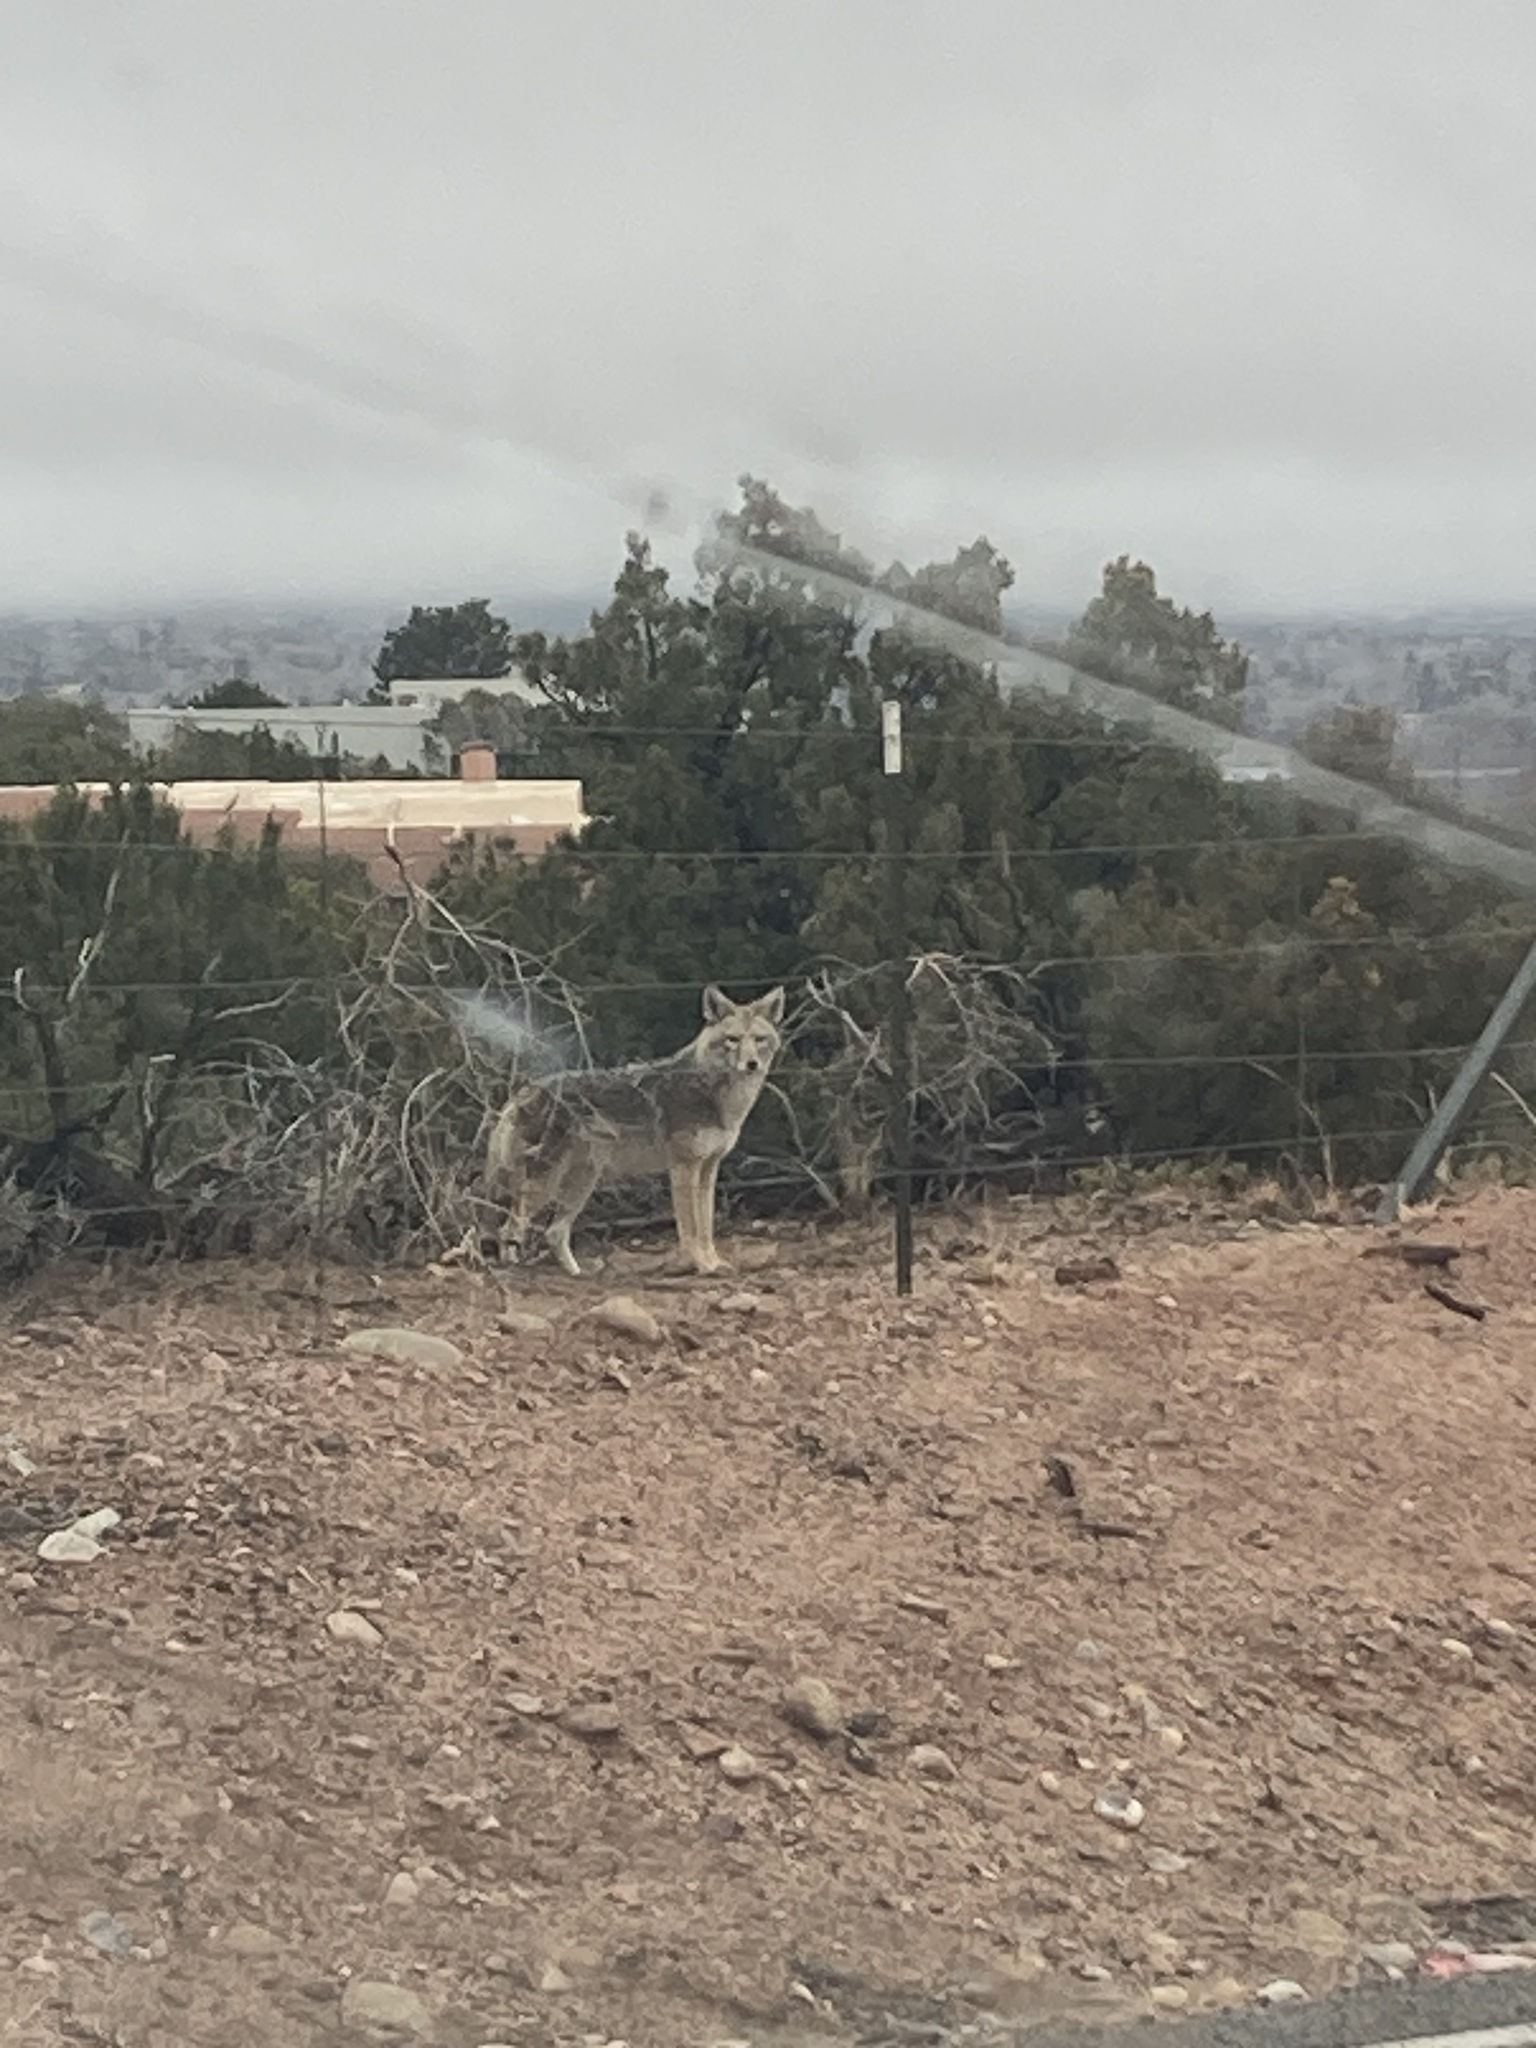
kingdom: Animalia
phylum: Chordata
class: Mammalia
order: Carnivora
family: Canidae
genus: Canis
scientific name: Canis latrans
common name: Coyote
